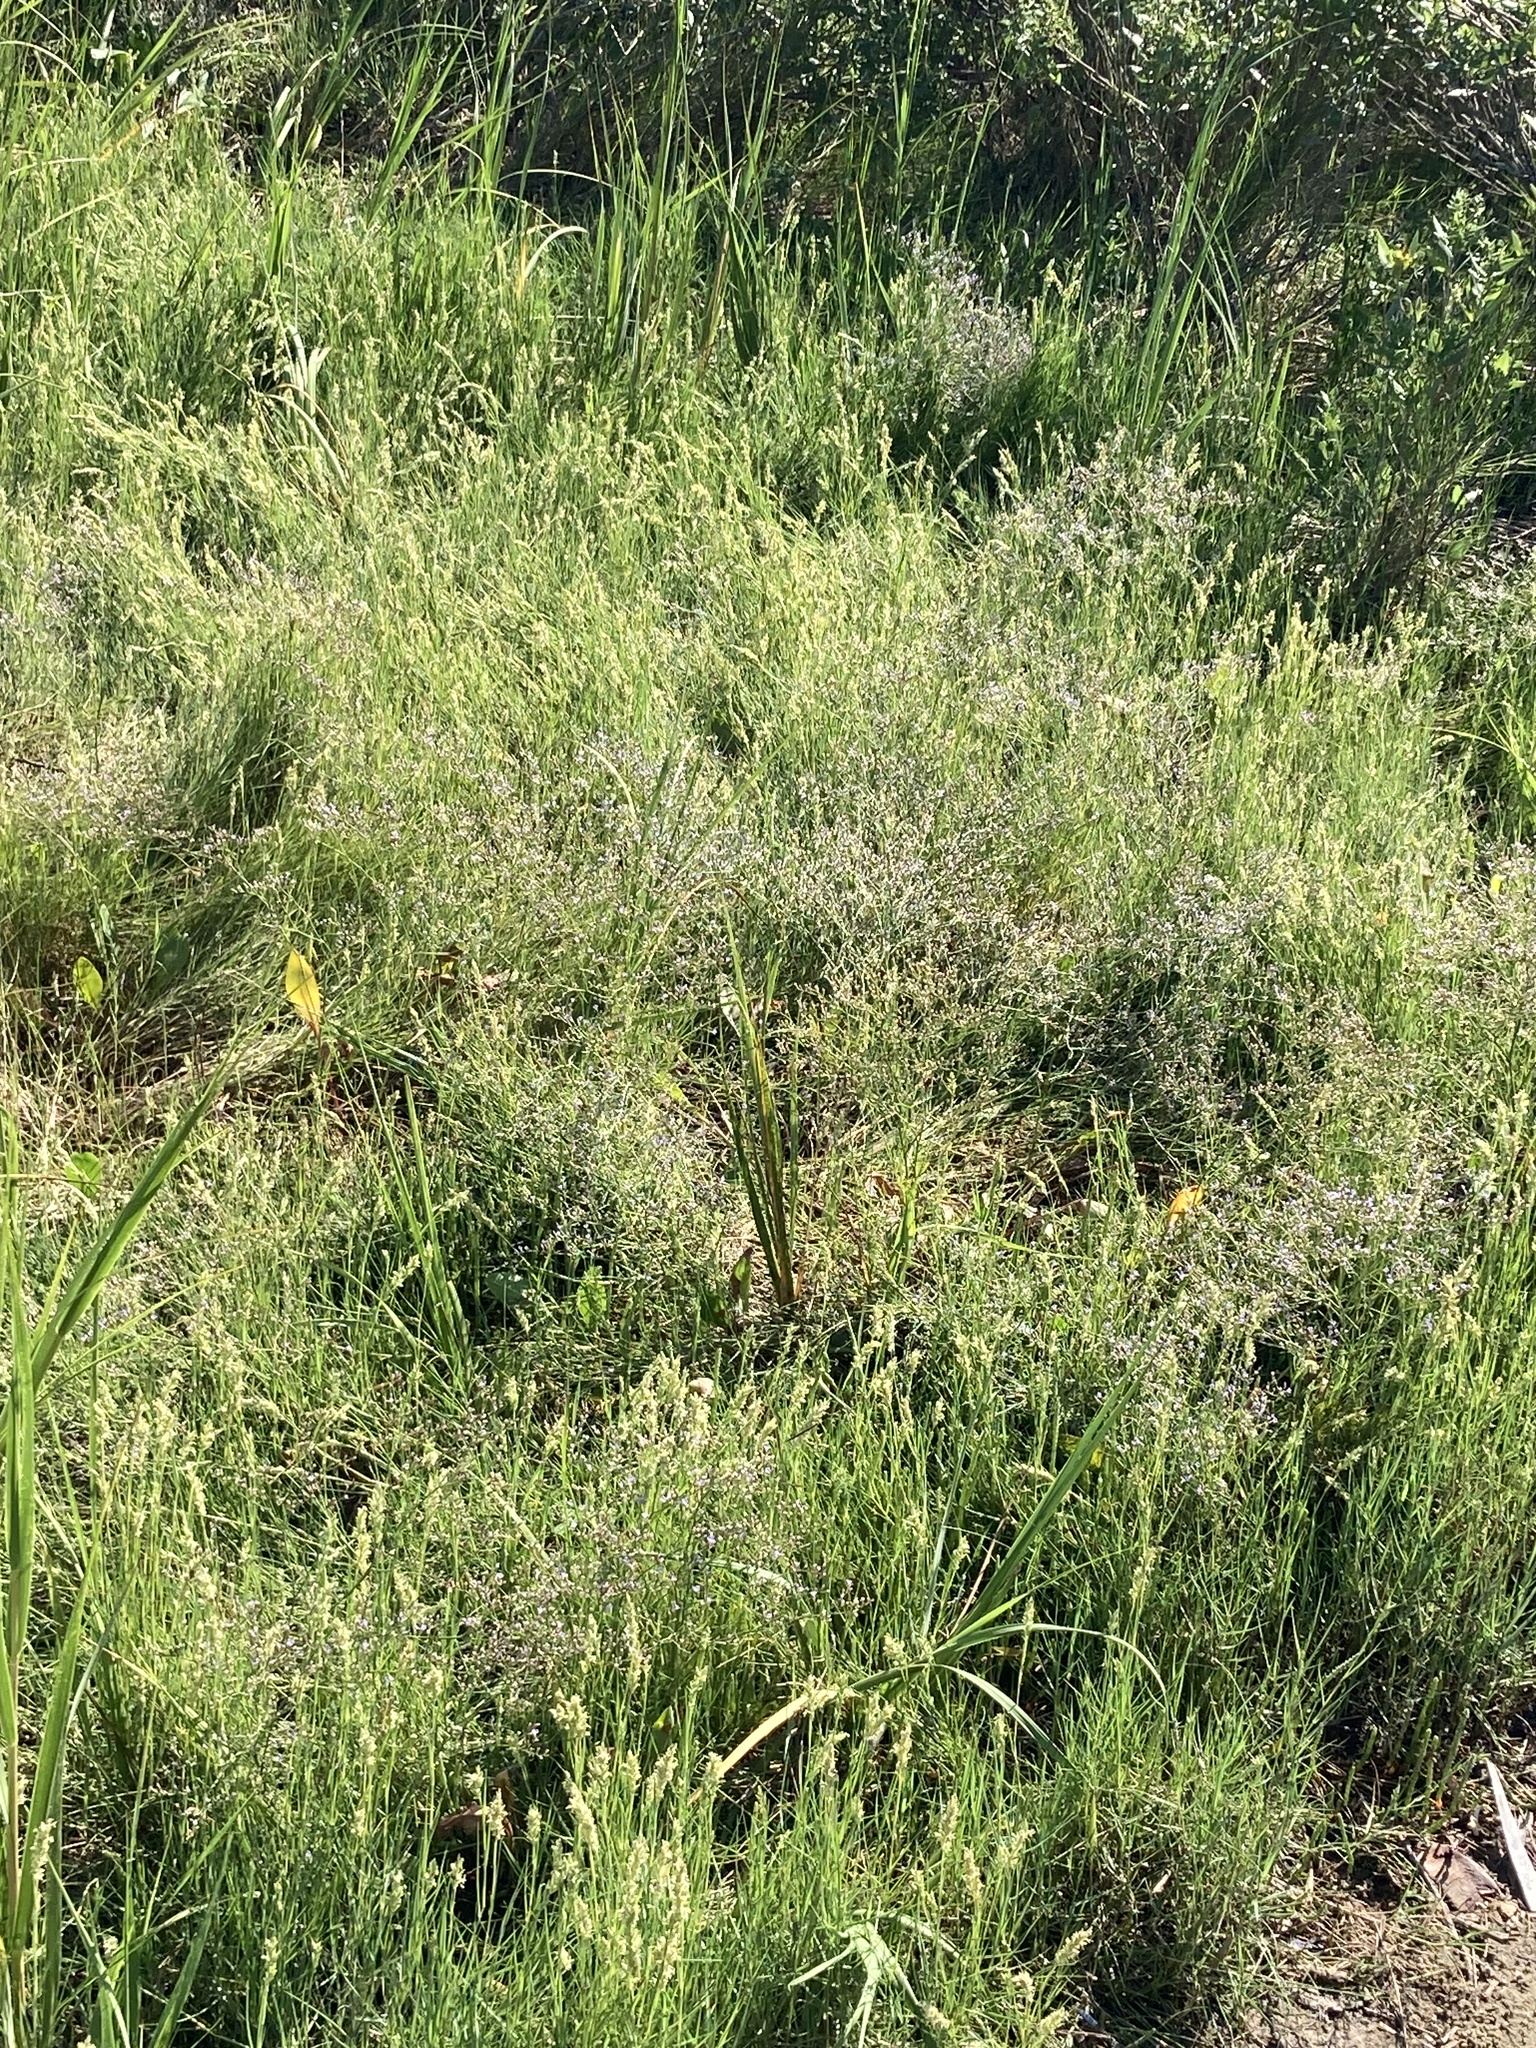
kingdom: Plantae
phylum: Tracheophyta
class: Magnoliopsida
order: Caryophyllales
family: Plumbaginaceae
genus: Limonium
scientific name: Limonium carolinianum
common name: Carolina sea lavender
